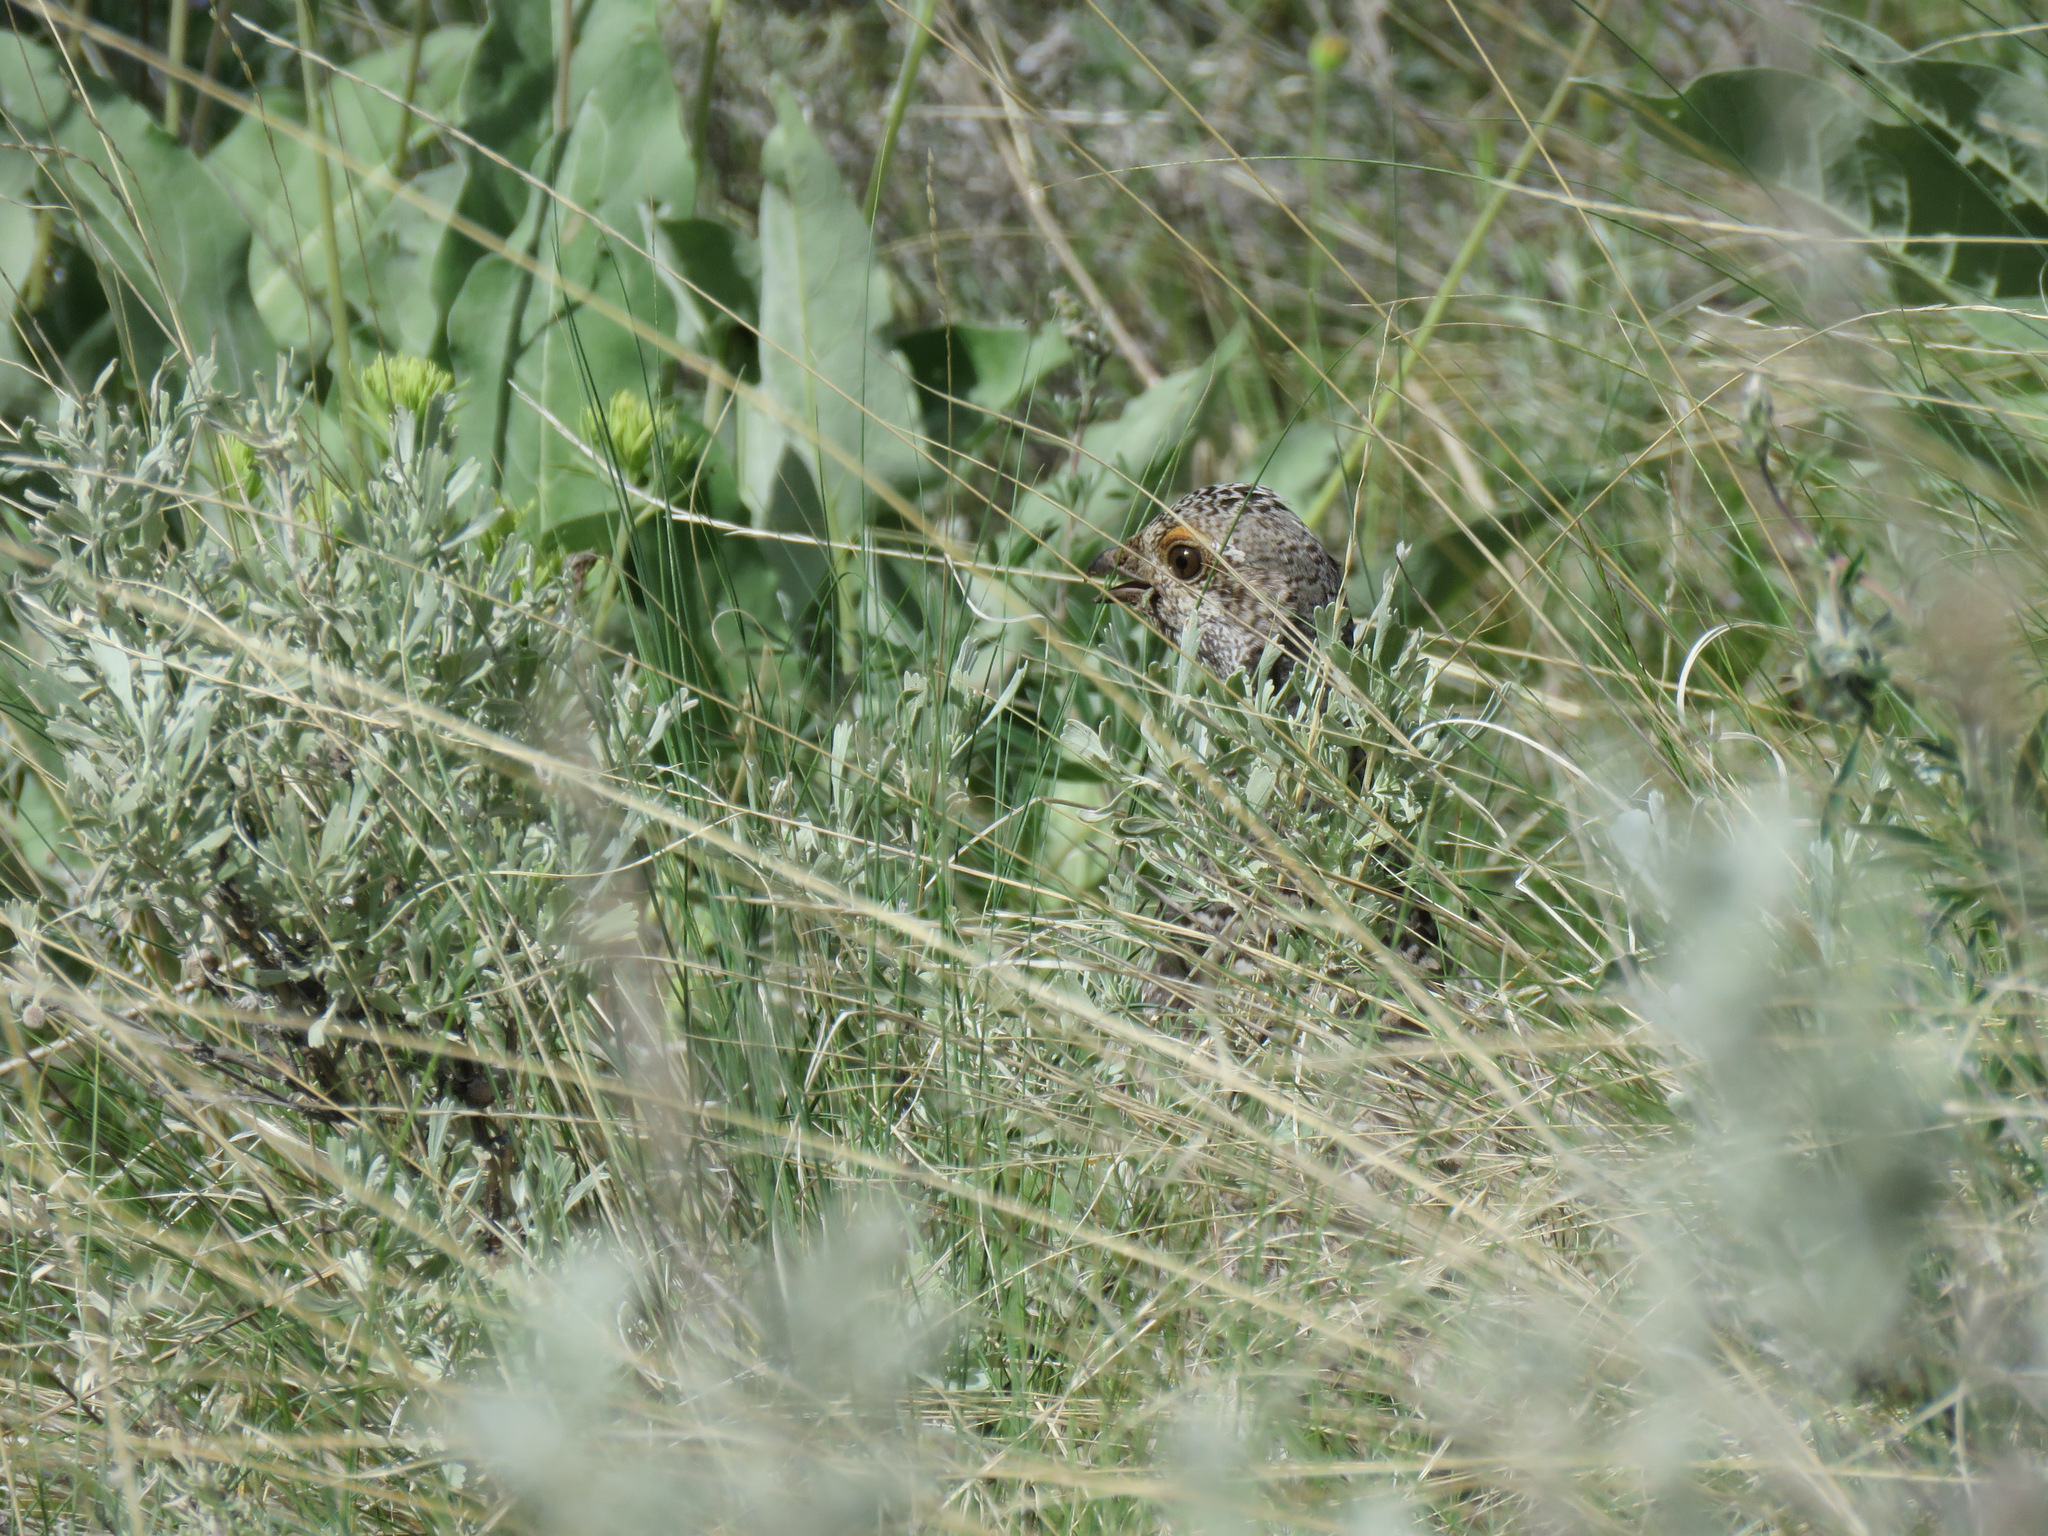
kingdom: Animalia
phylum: Chordata
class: Aves
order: Galliformes
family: Phasianidae
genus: Dendragapus
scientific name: Dendragapus obscurus
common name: Dusky grouse
